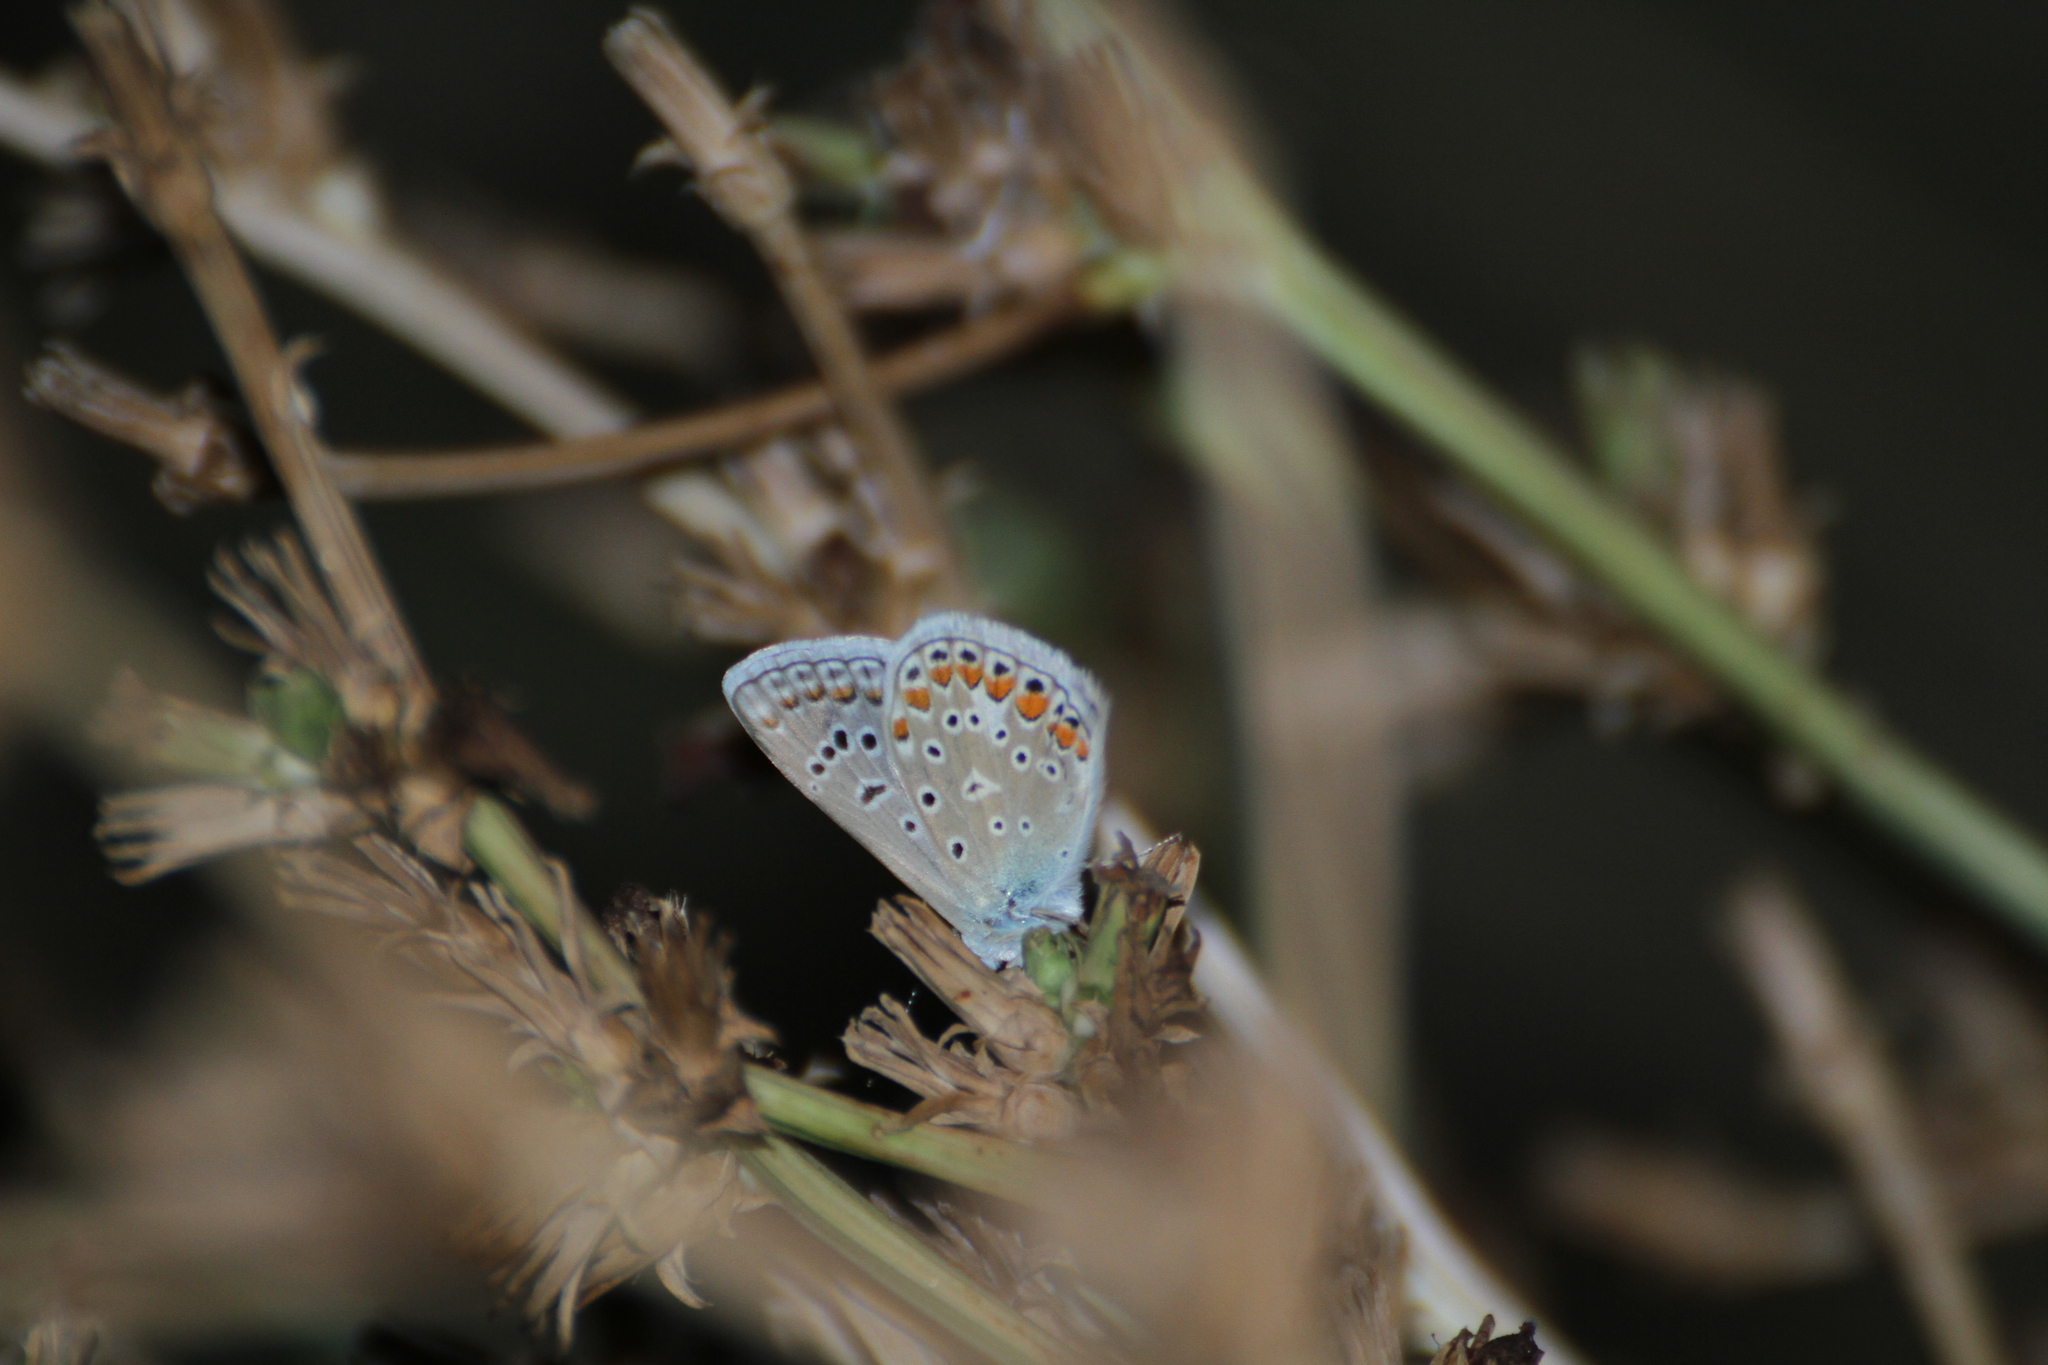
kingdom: Animalia
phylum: Arthropoda
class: Insecta
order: Lepidoptera
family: Lycaenidae
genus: Polyommatus
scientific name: Polyommatus icarus
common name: Common blue
